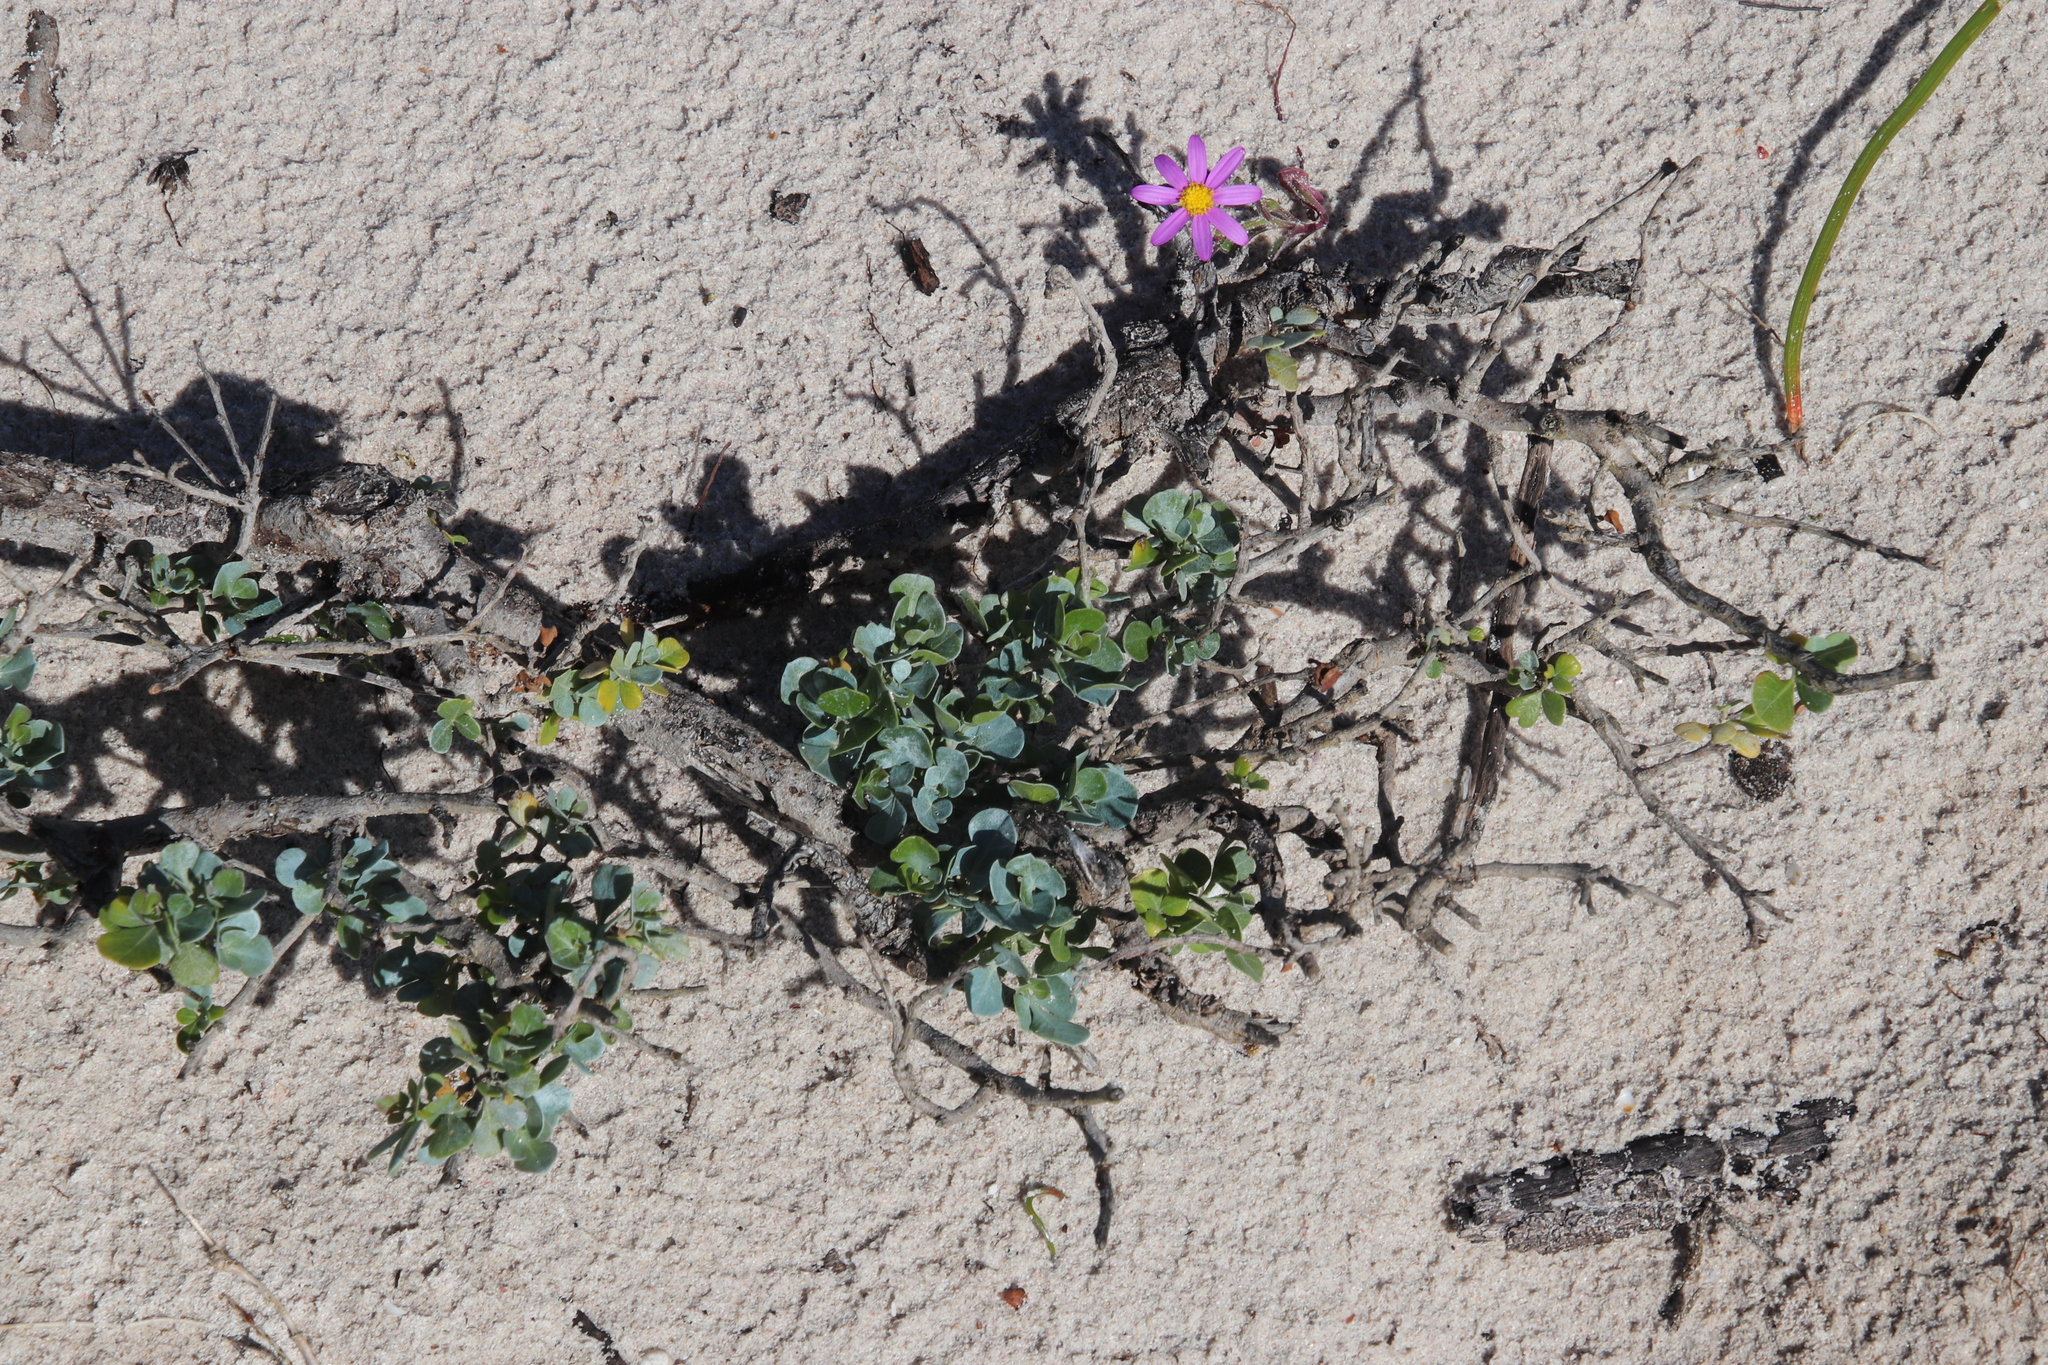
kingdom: Plantae
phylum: Tracheophyta
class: Magnoliopsida
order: Sapindales
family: Anacardiaceae
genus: Searsia
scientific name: Searsia glauca
